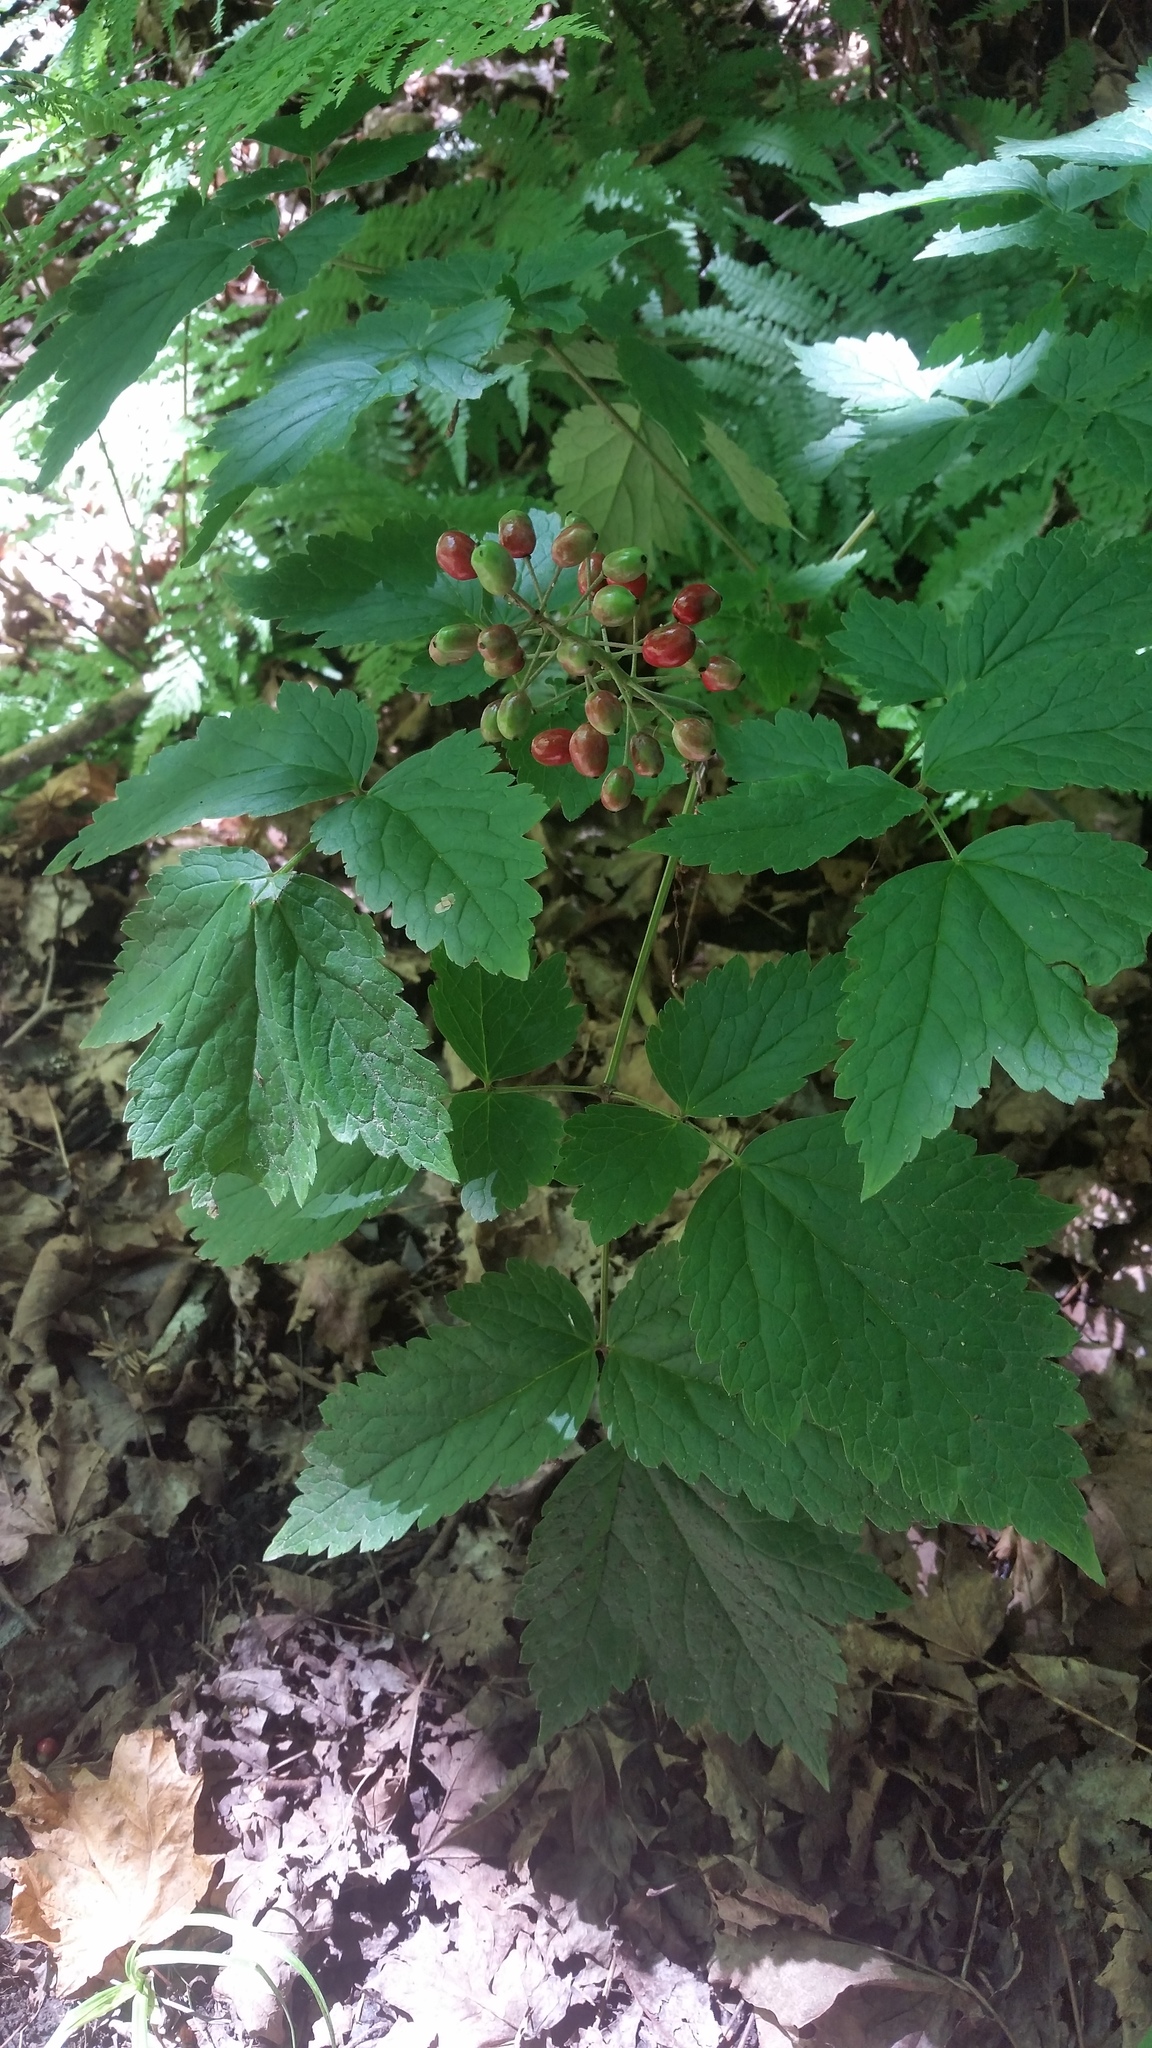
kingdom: Plantae
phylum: Tracheophyta
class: Magnoliopsida
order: Ranunculales
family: Ranunculaceae
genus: Actaea
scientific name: Actaea rubra
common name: Red baneberry
